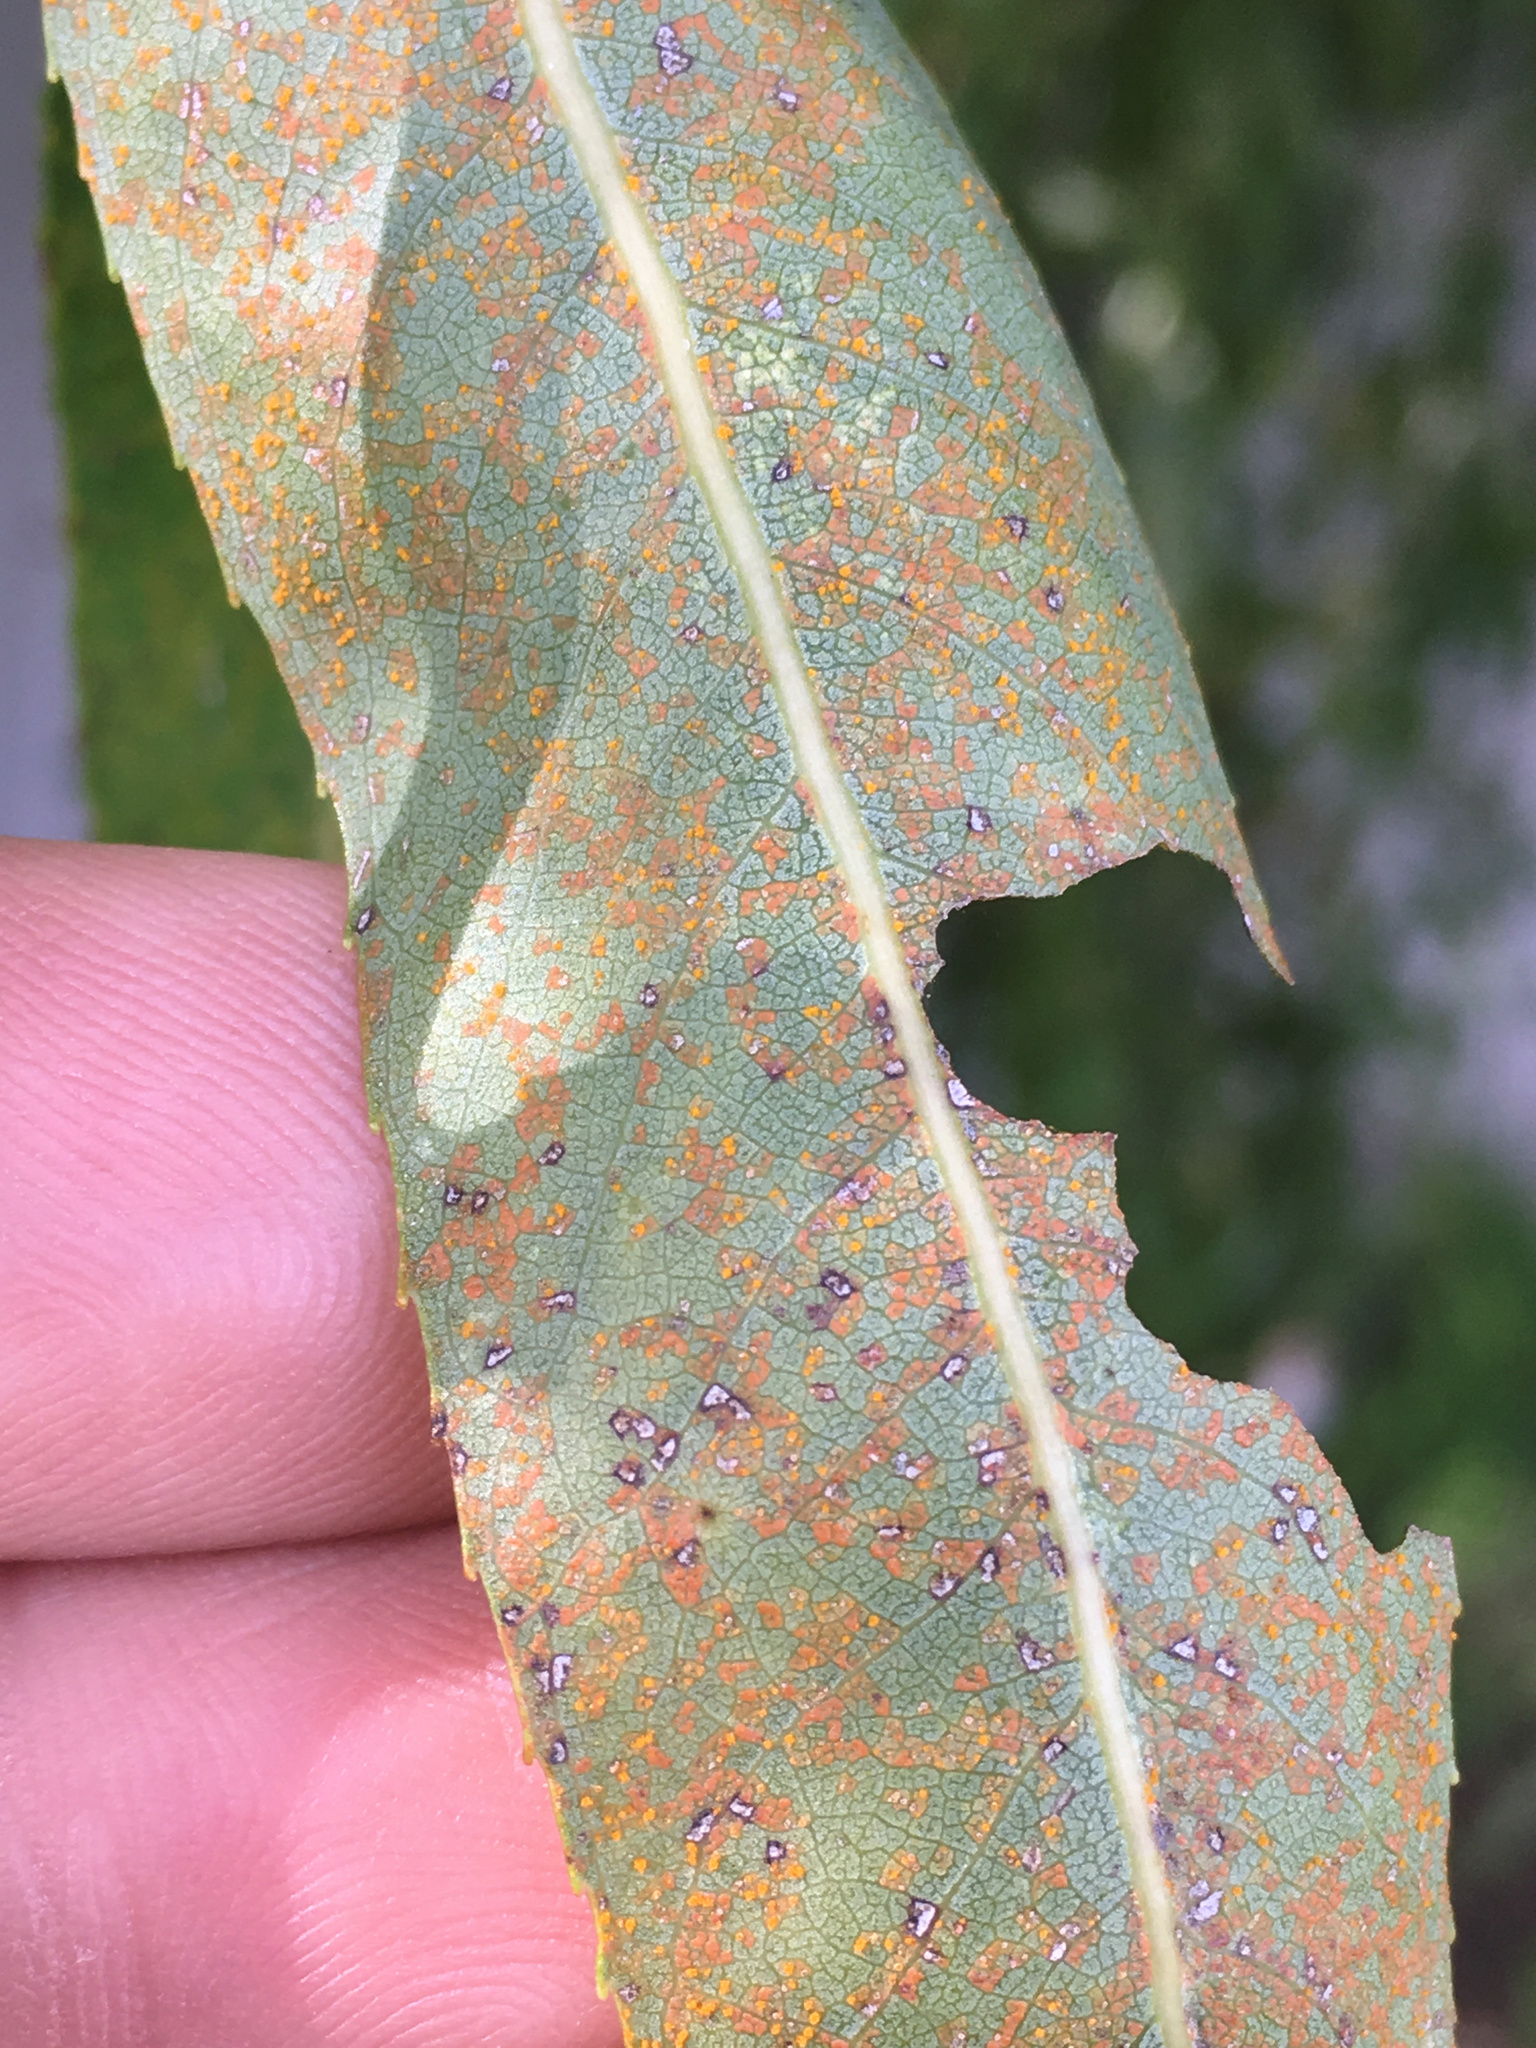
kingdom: Fungi
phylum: Basidiomycota
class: Pucciniomycetes
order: Pucciniales
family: Melampsoraceae
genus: Melampsora
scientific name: Melampsora
